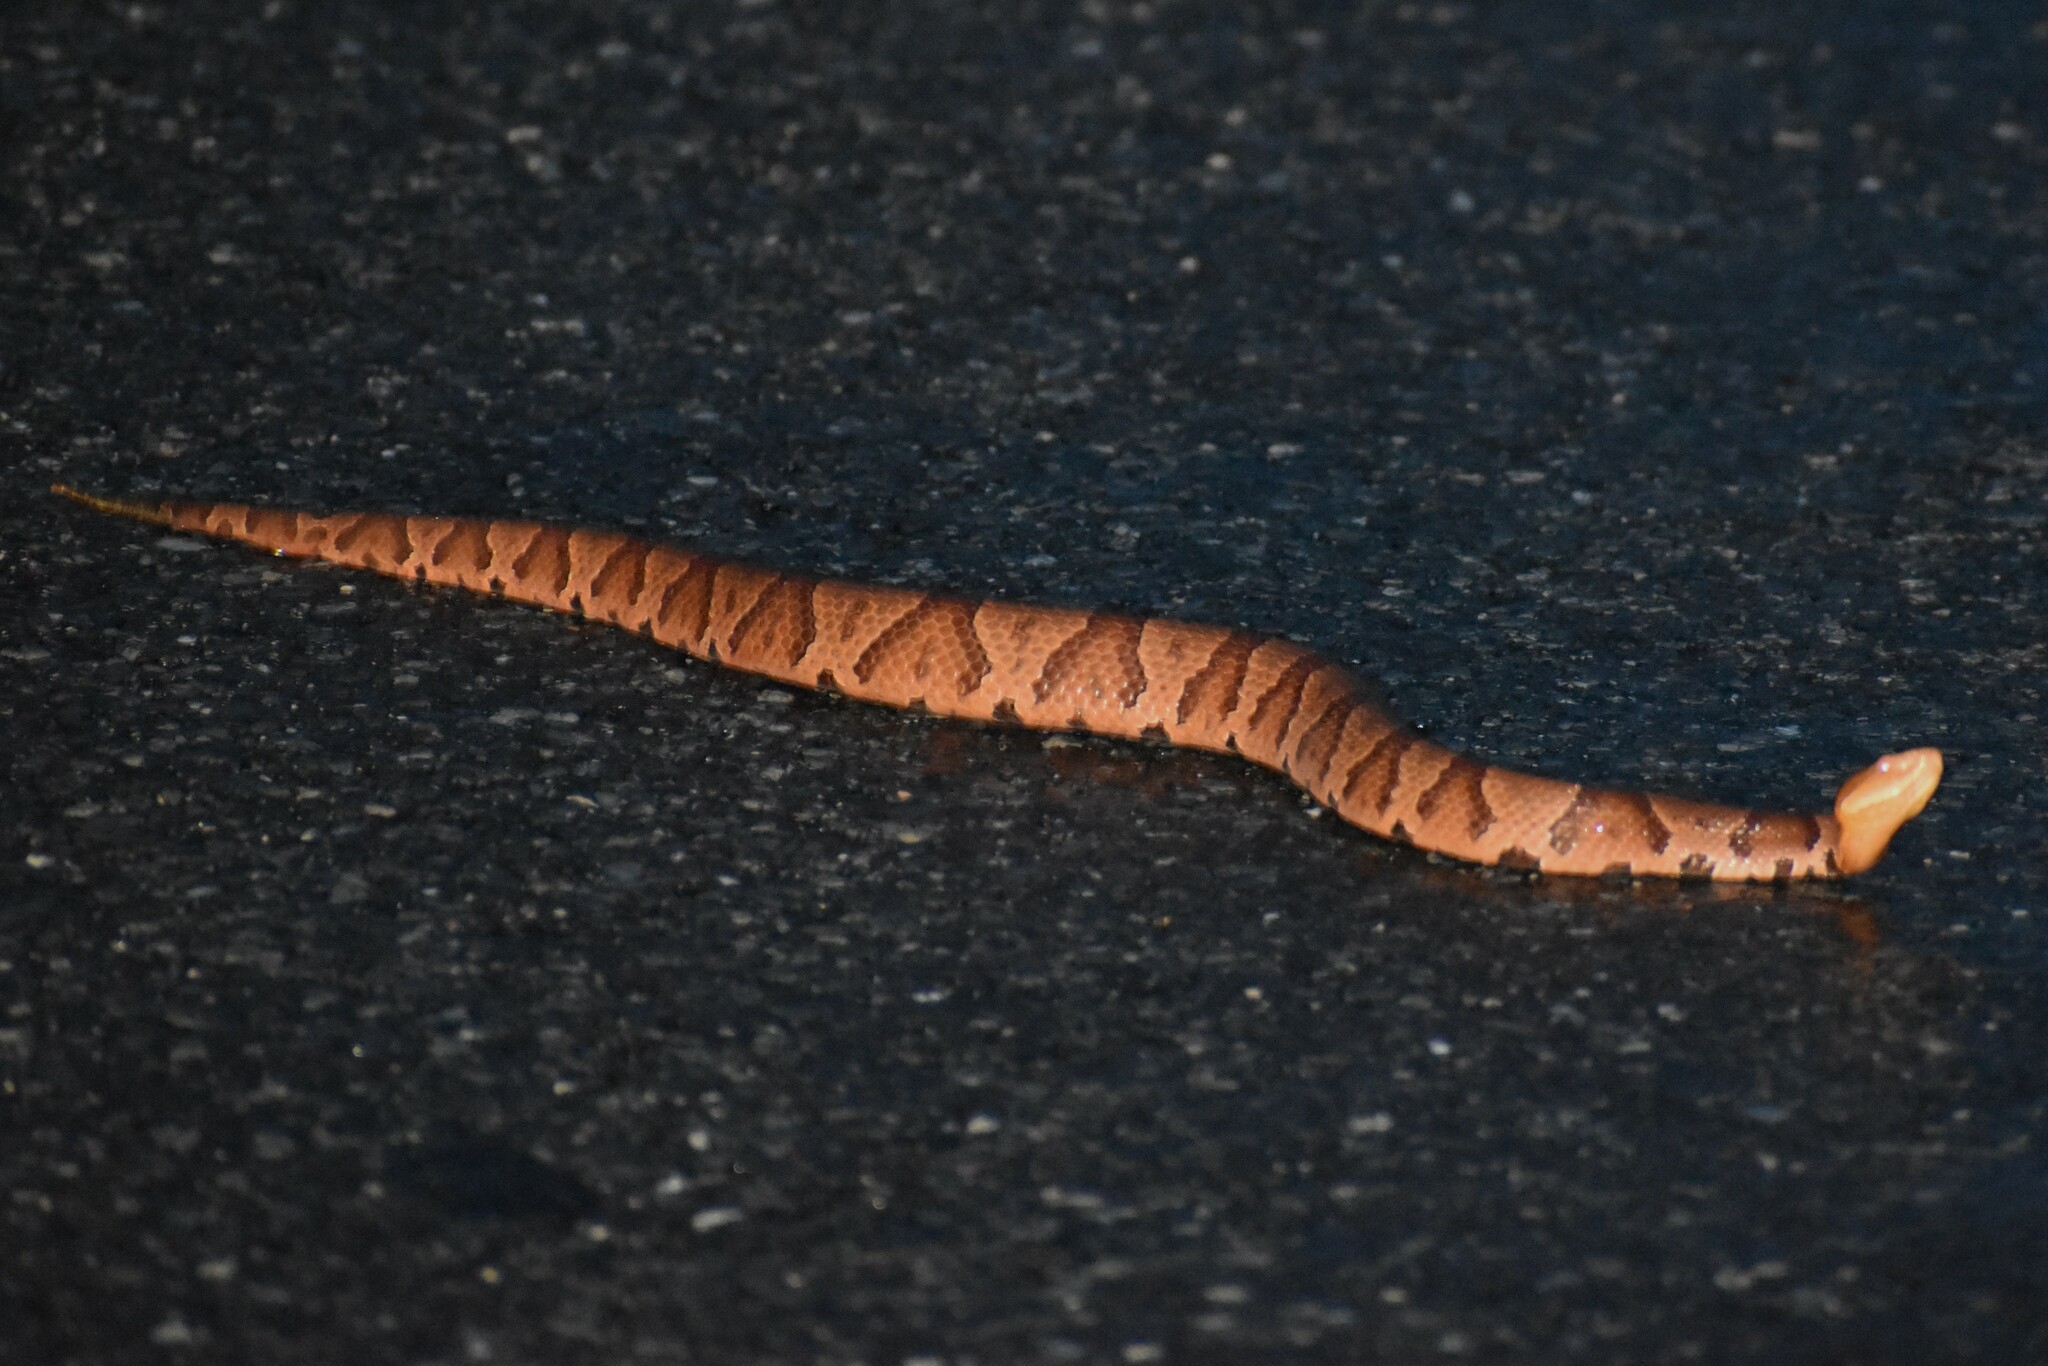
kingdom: Animalia
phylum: Chordata
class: Squamata
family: Viperidae
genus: Agkistrodon
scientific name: Agkistrodon contortrix
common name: Northern copperhead
